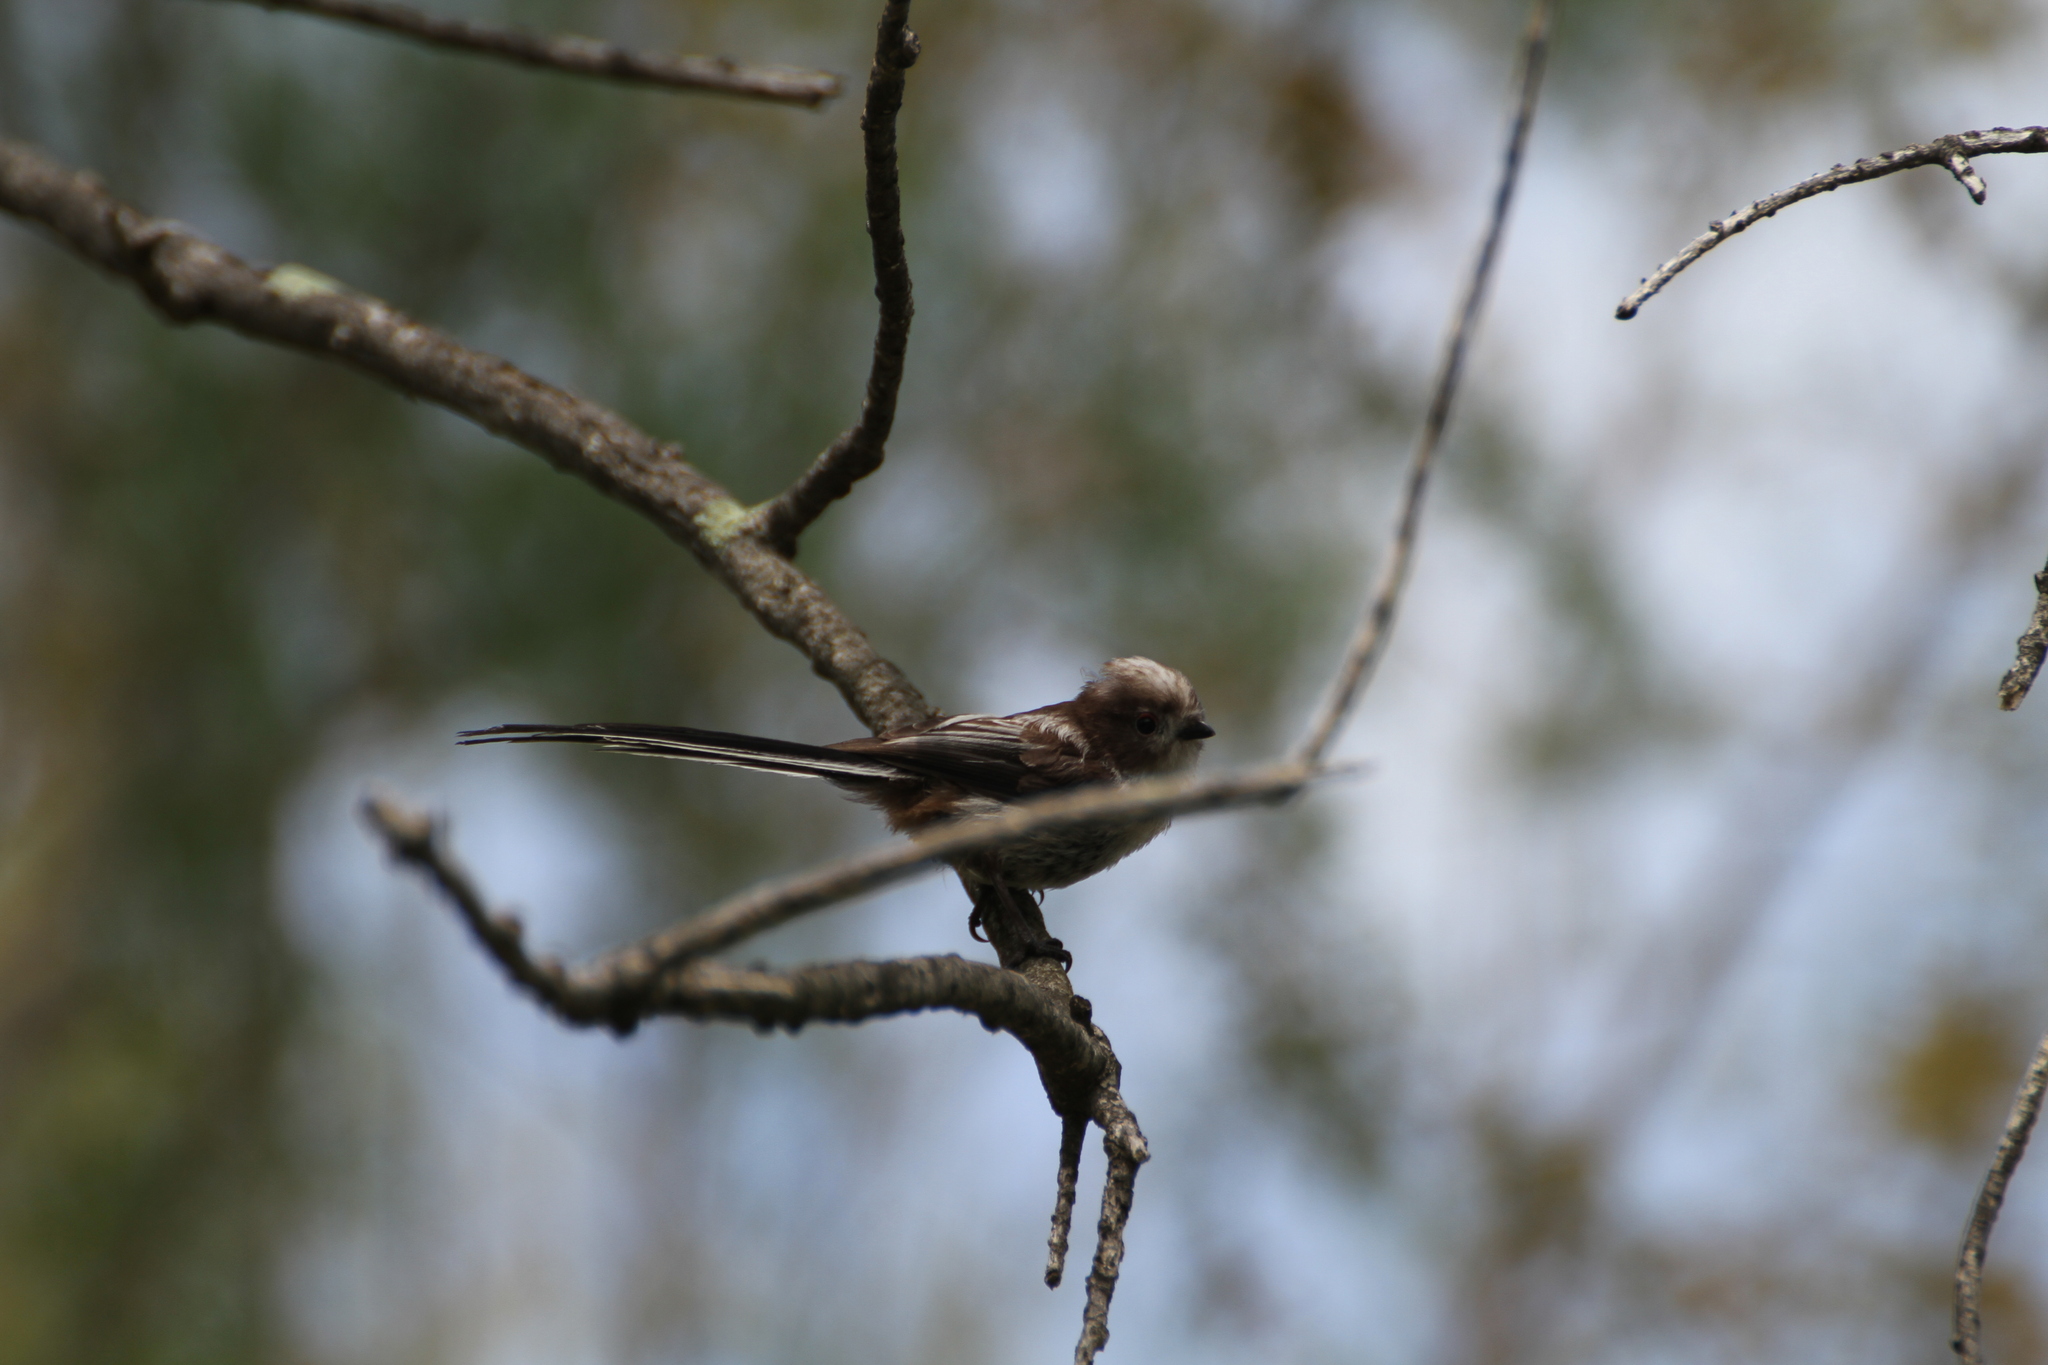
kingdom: Animalia
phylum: Chordata
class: Aves
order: Passeriformes
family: Aegithalidae
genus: Aegithalos
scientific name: Aegithalos caudatus
